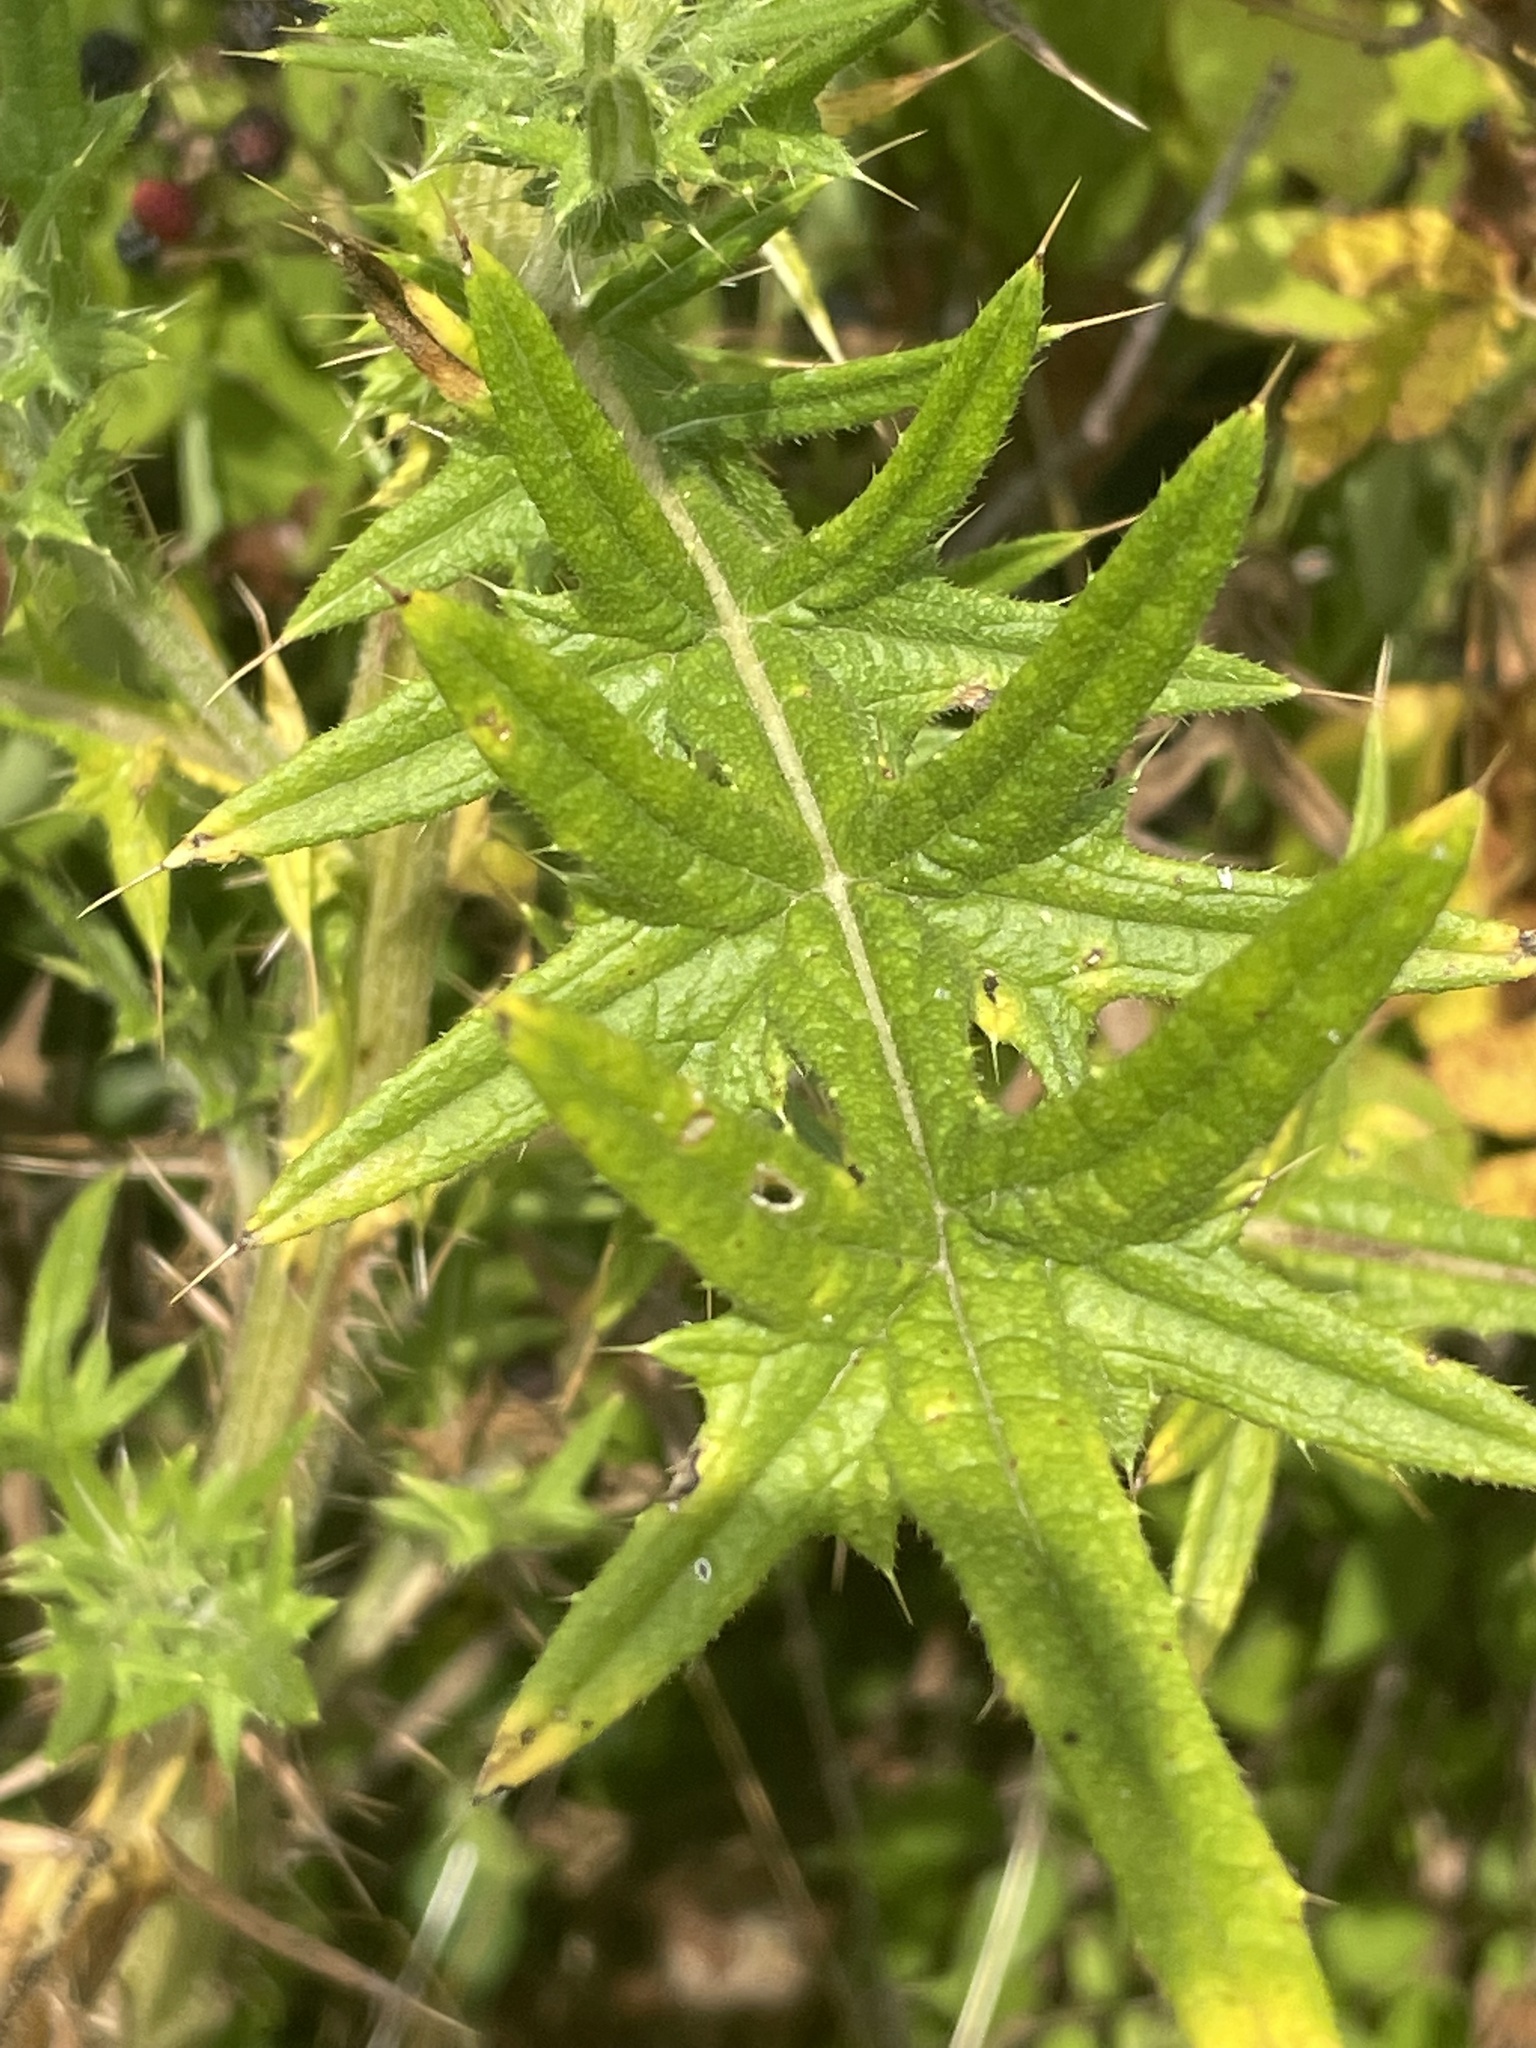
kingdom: Plantae
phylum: Tracheophyta
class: Magnoliopsida
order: Asterales
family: Asteraceae
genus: Cirsium
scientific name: Cirsium vulgare
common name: Bull thistle
